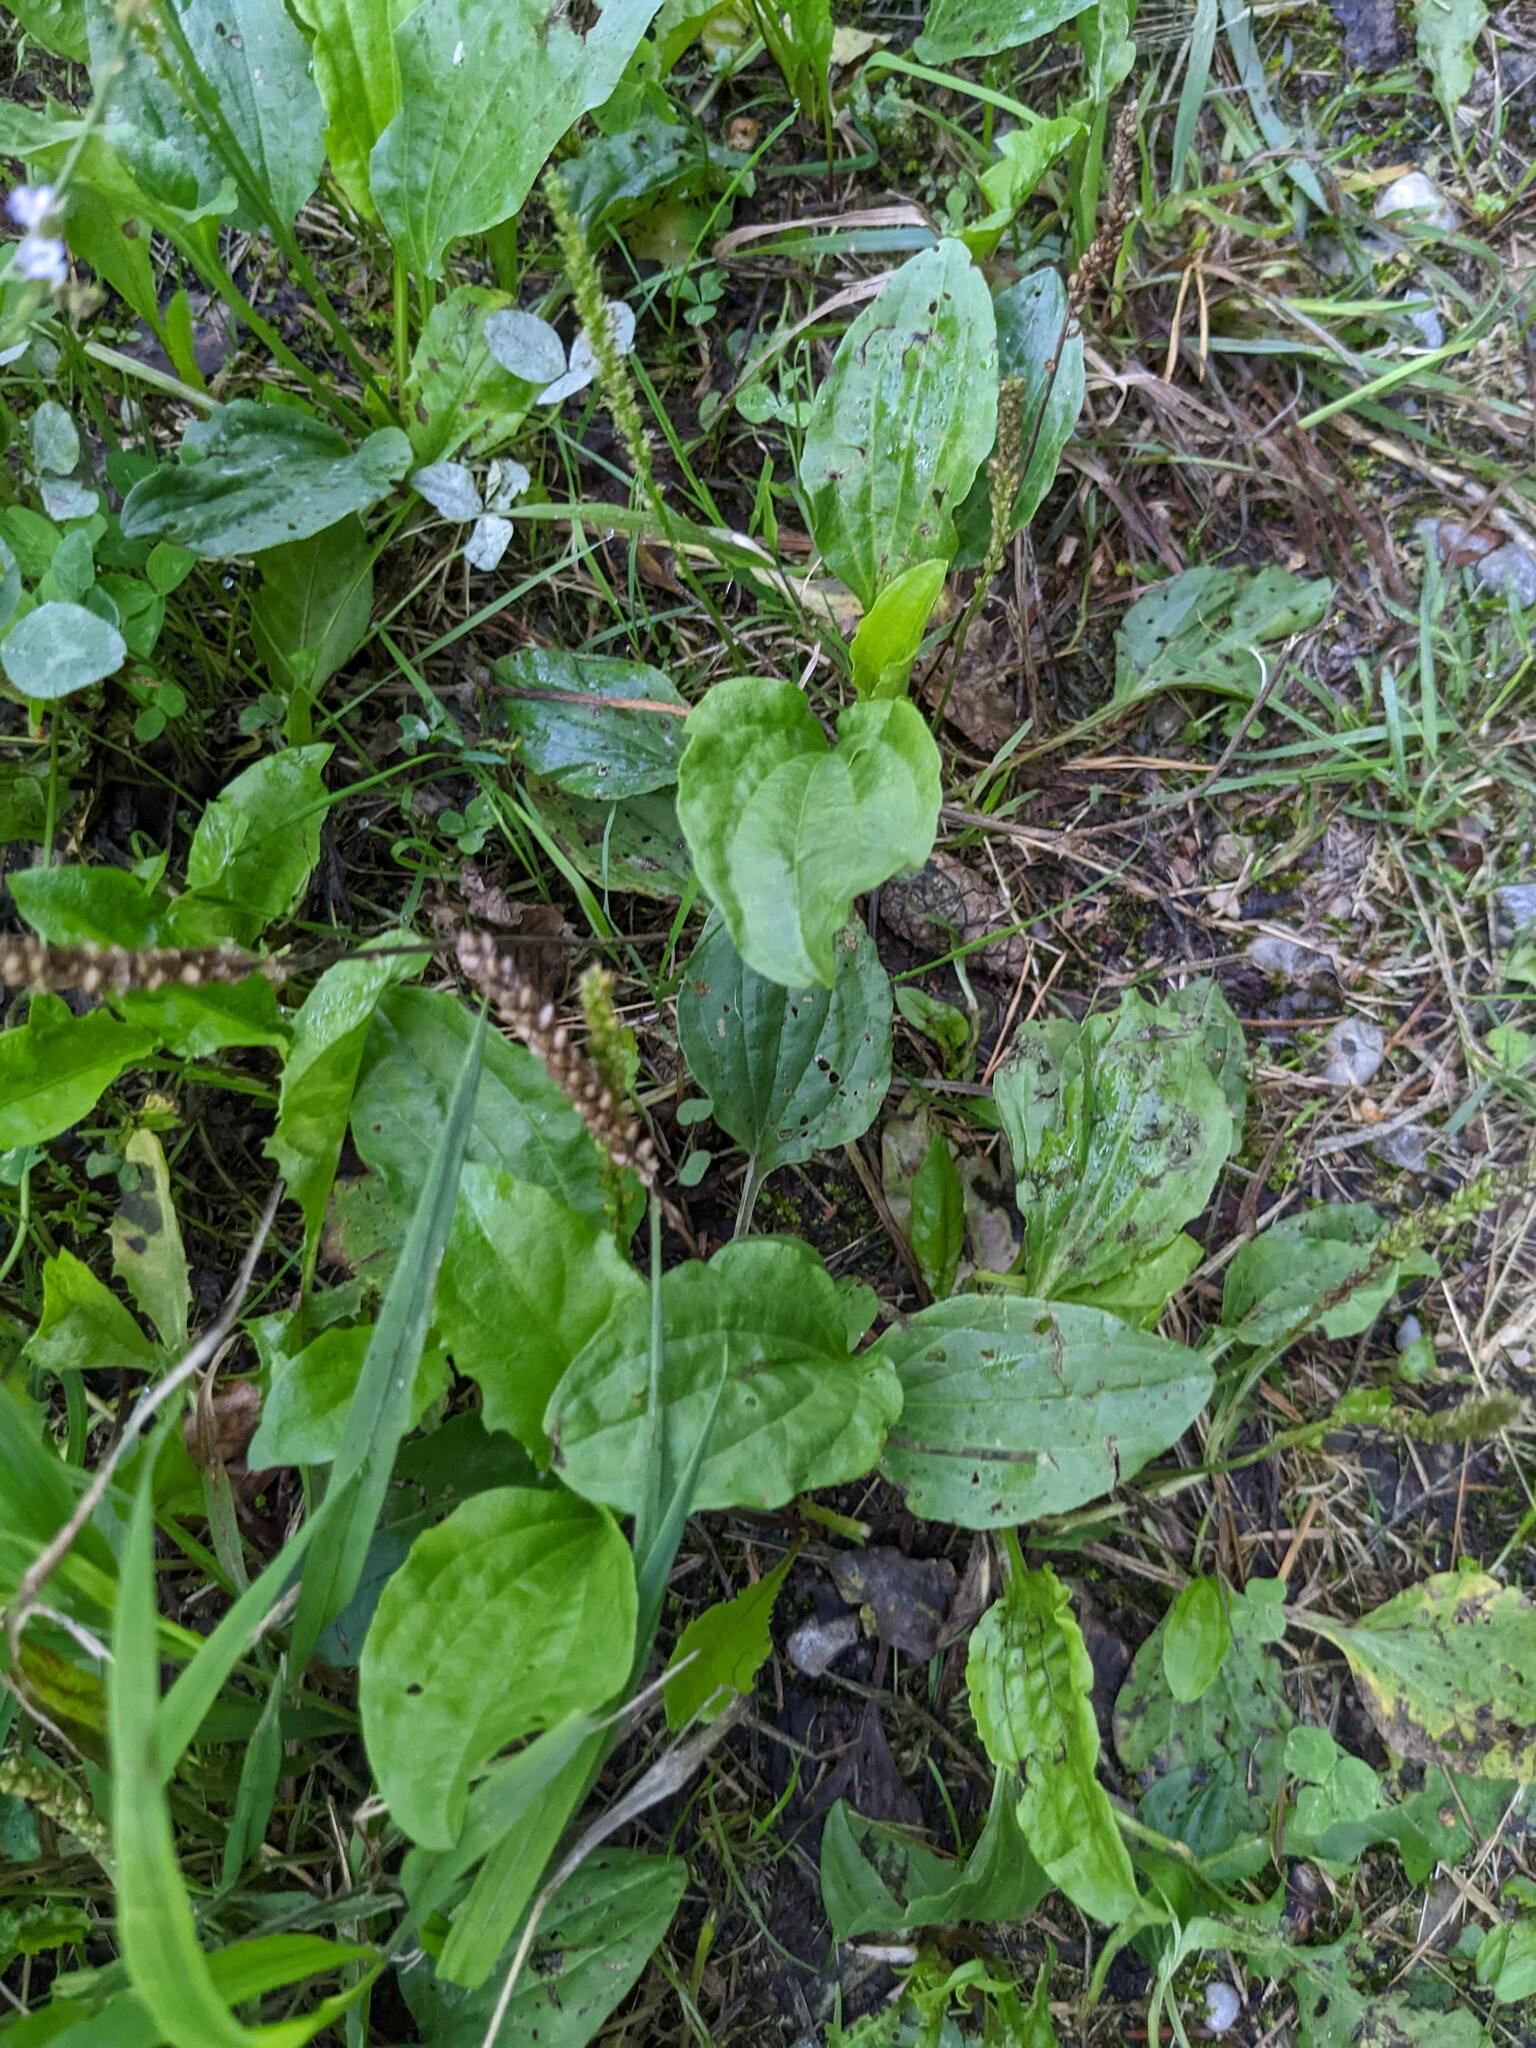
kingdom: Plantae
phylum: Tracheophyta
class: Magnoliopsida
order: Lamiales
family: Plantaginaceae
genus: Plantago
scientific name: Plantago major
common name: Common plantain
